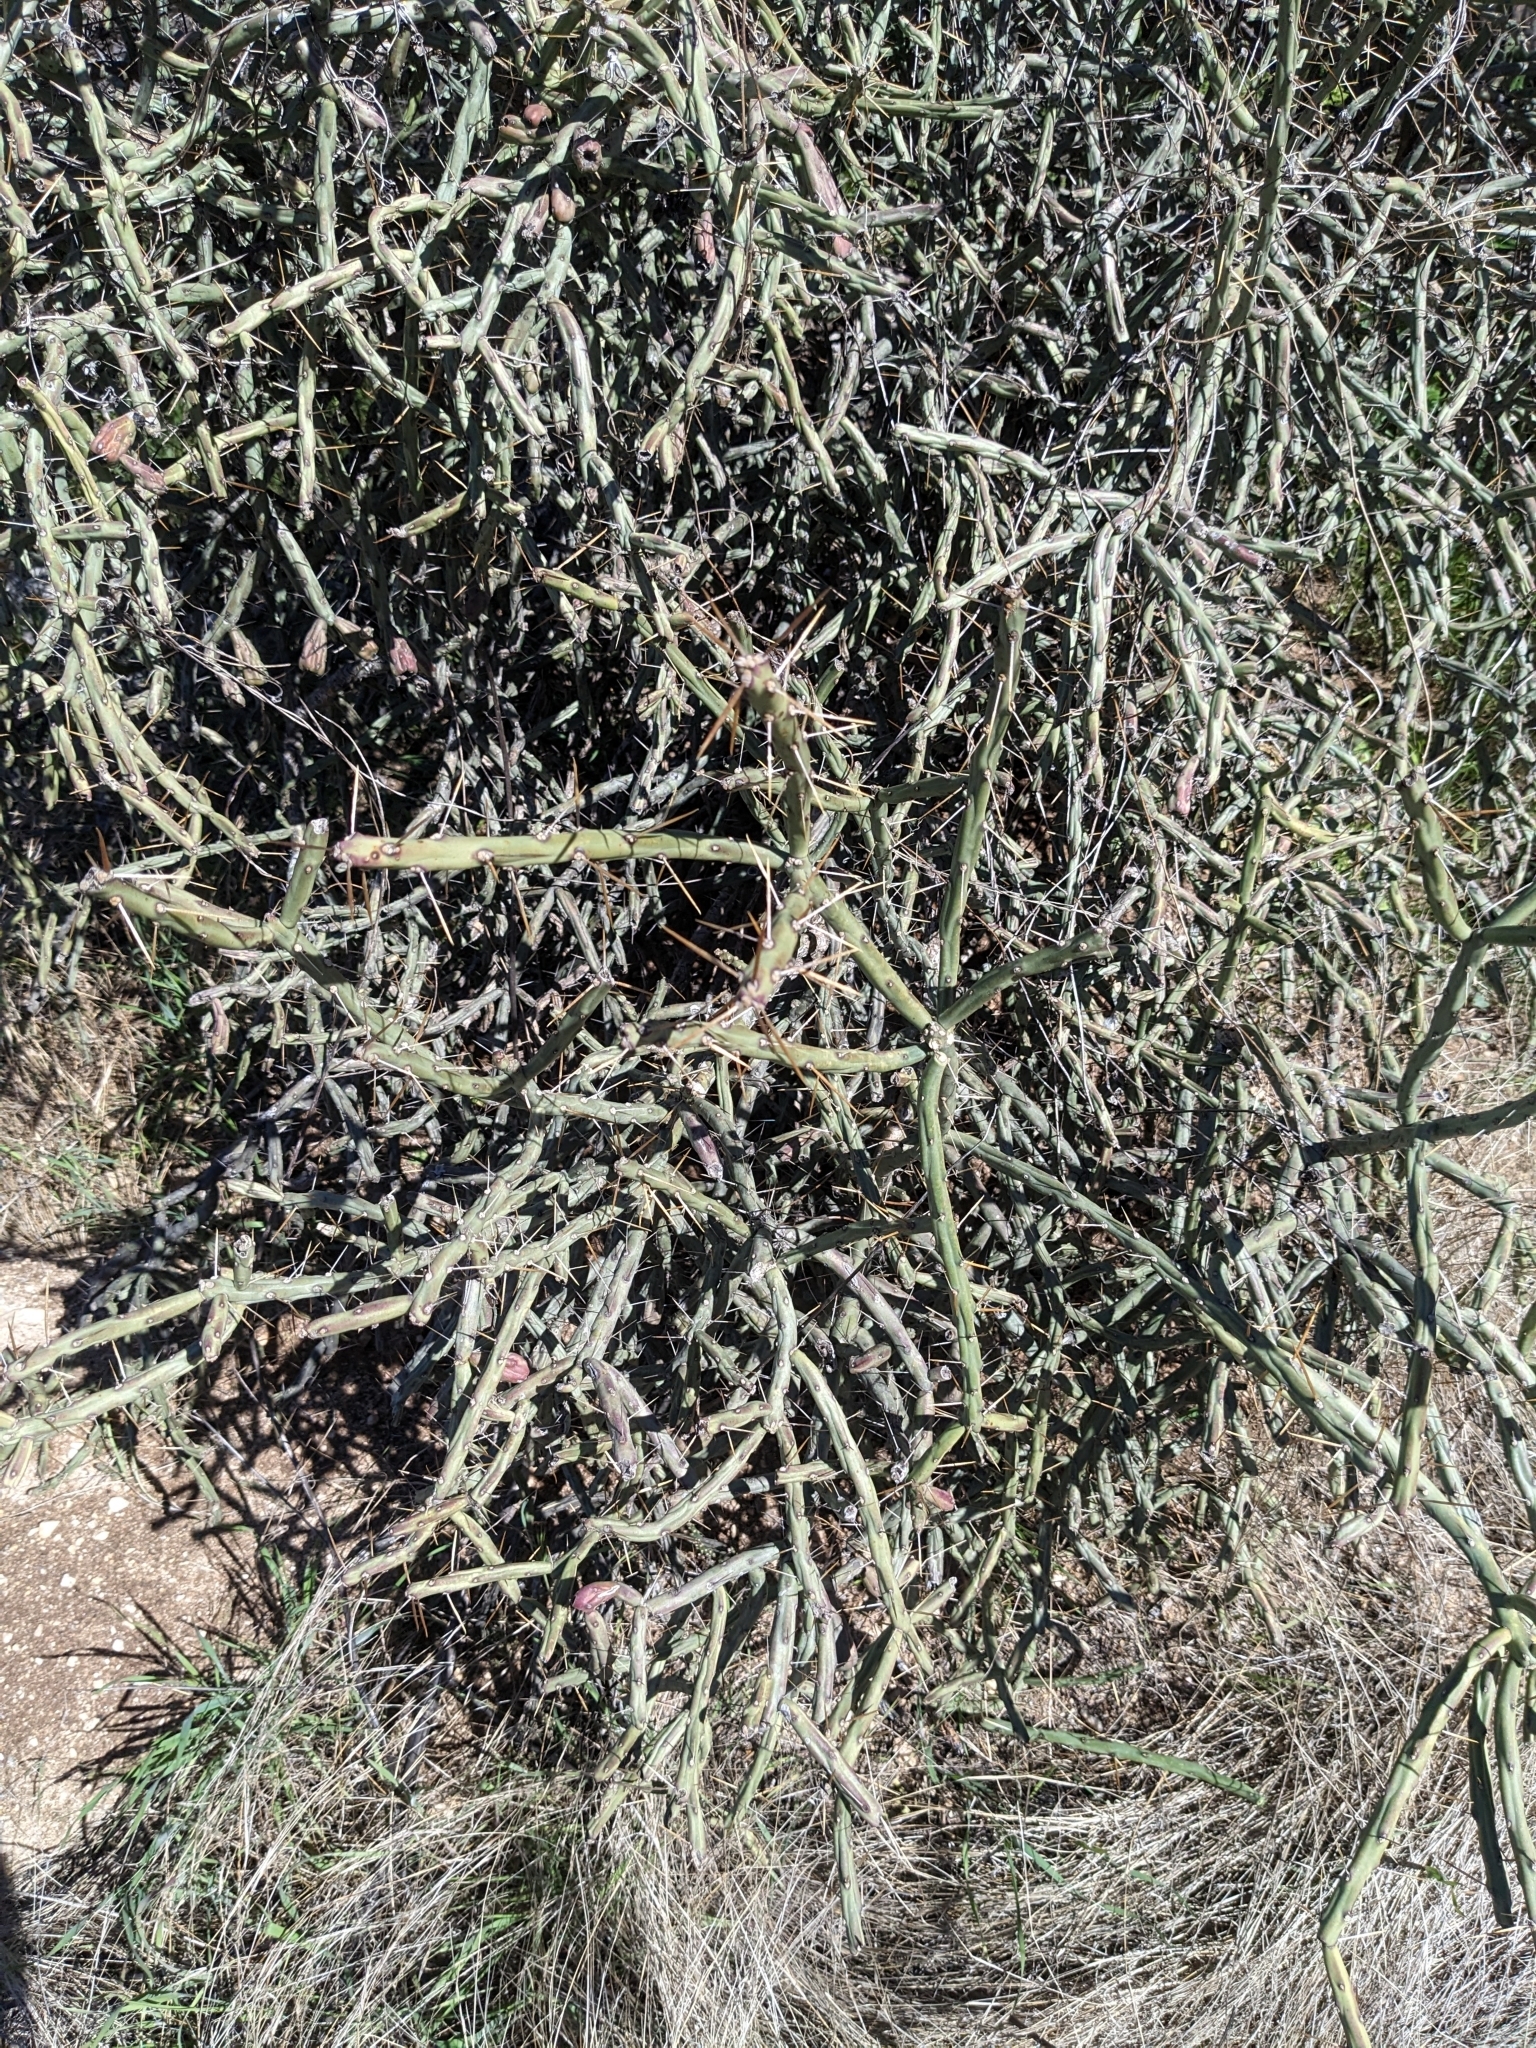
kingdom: Plantae
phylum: Tracheophyta
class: Magnoliopsida
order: Caryophyllales
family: Cactaceae
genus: Cylindropuntia
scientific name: Cylindropuntia leptocaulis
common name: Christmas cactus
